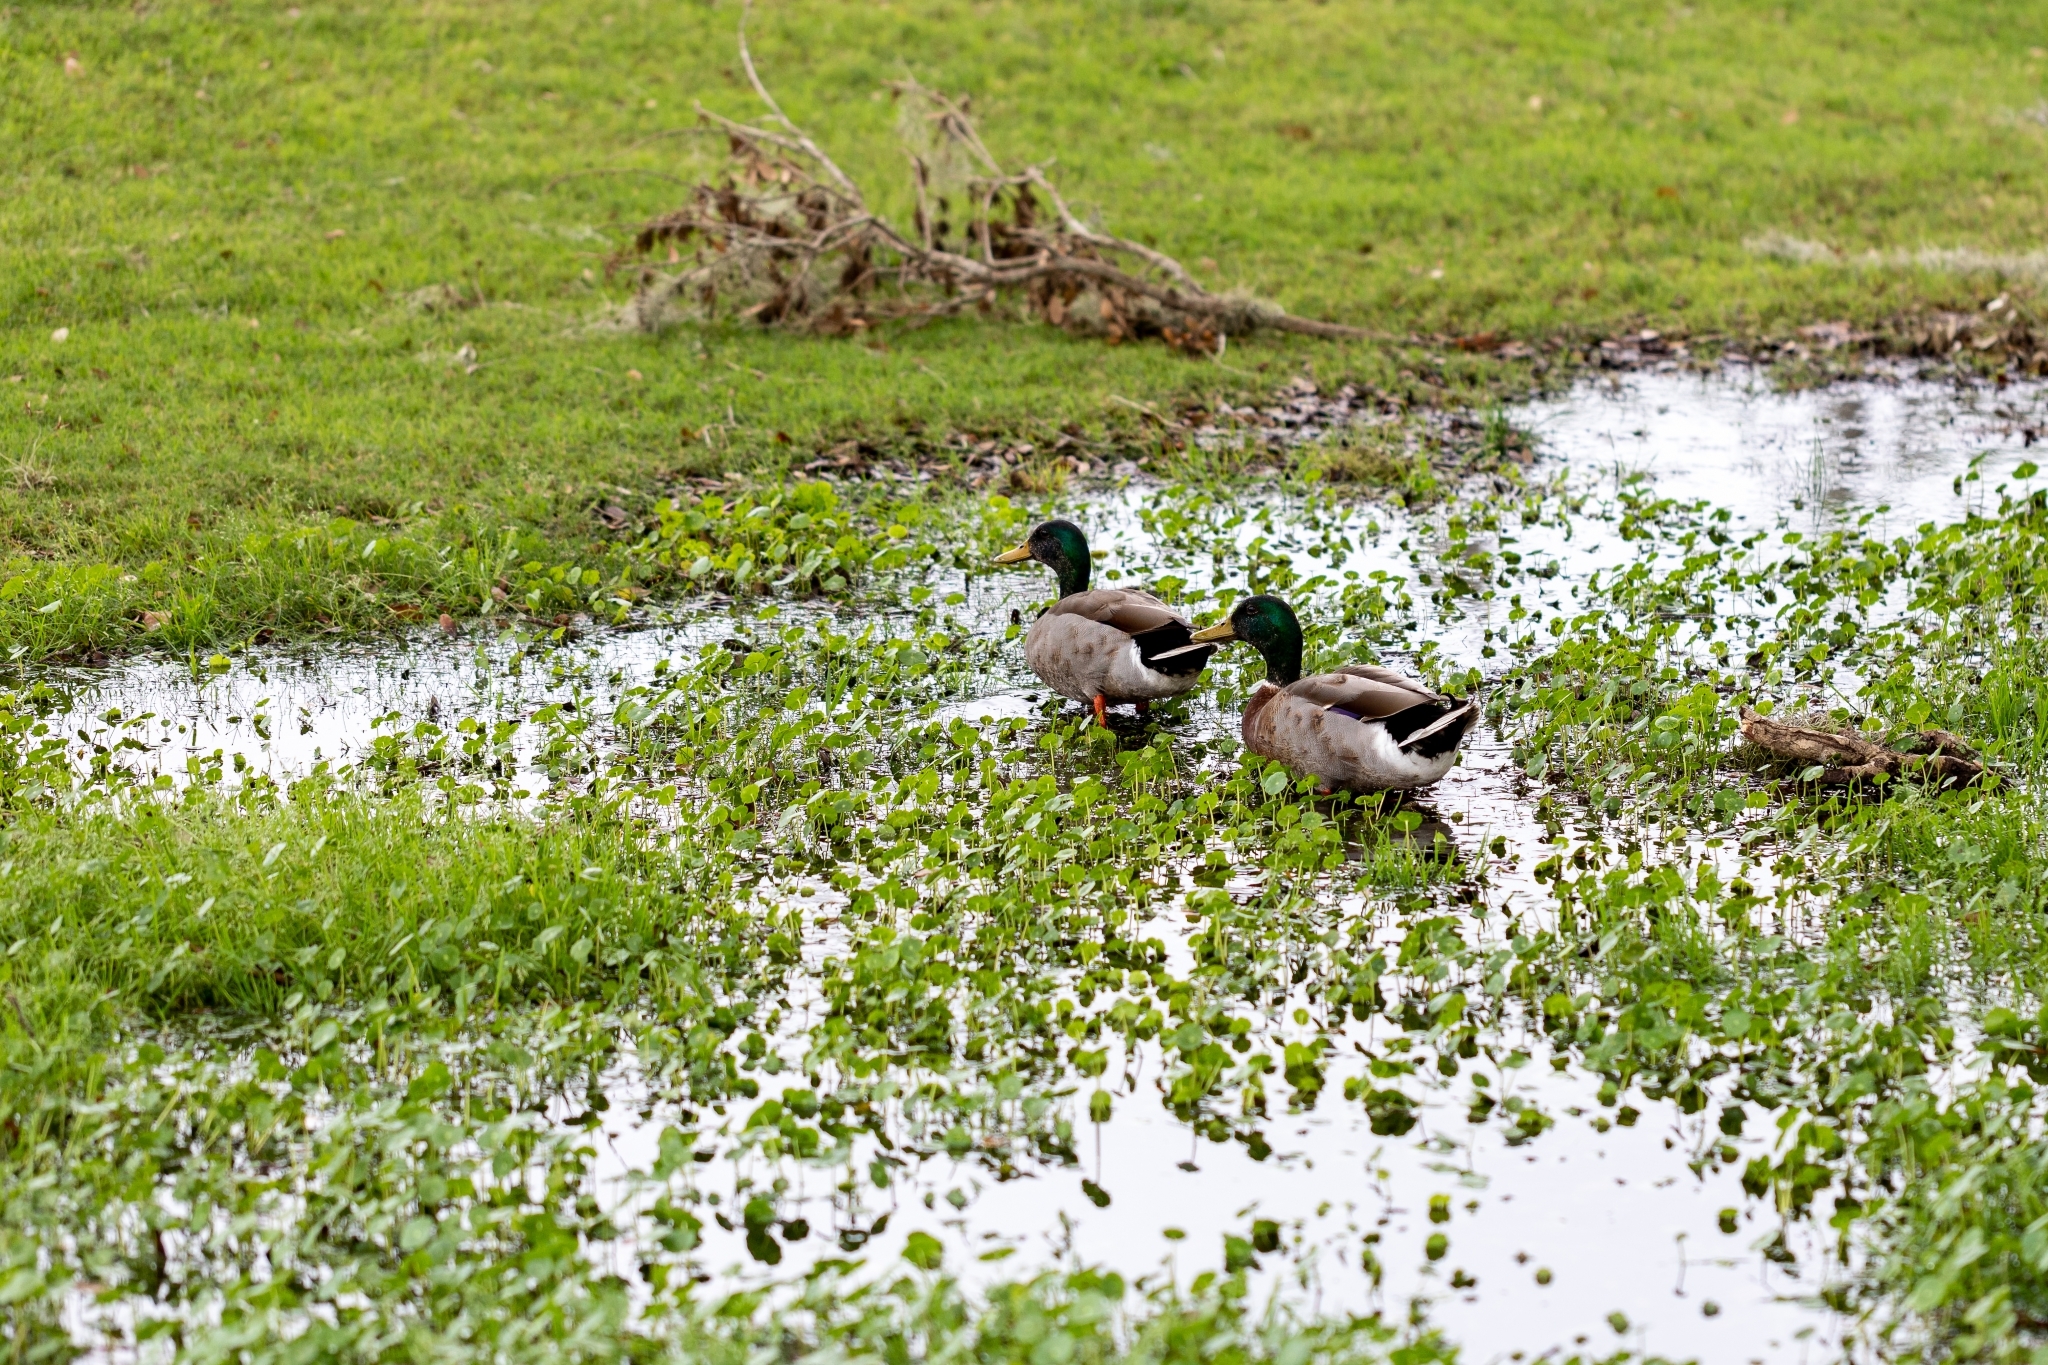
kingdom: Animalia
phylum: Chordata
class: Aves
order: Anseriformes
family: Anatidae
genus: Anas
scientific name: Anas platyrhynchos
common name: Mallard
